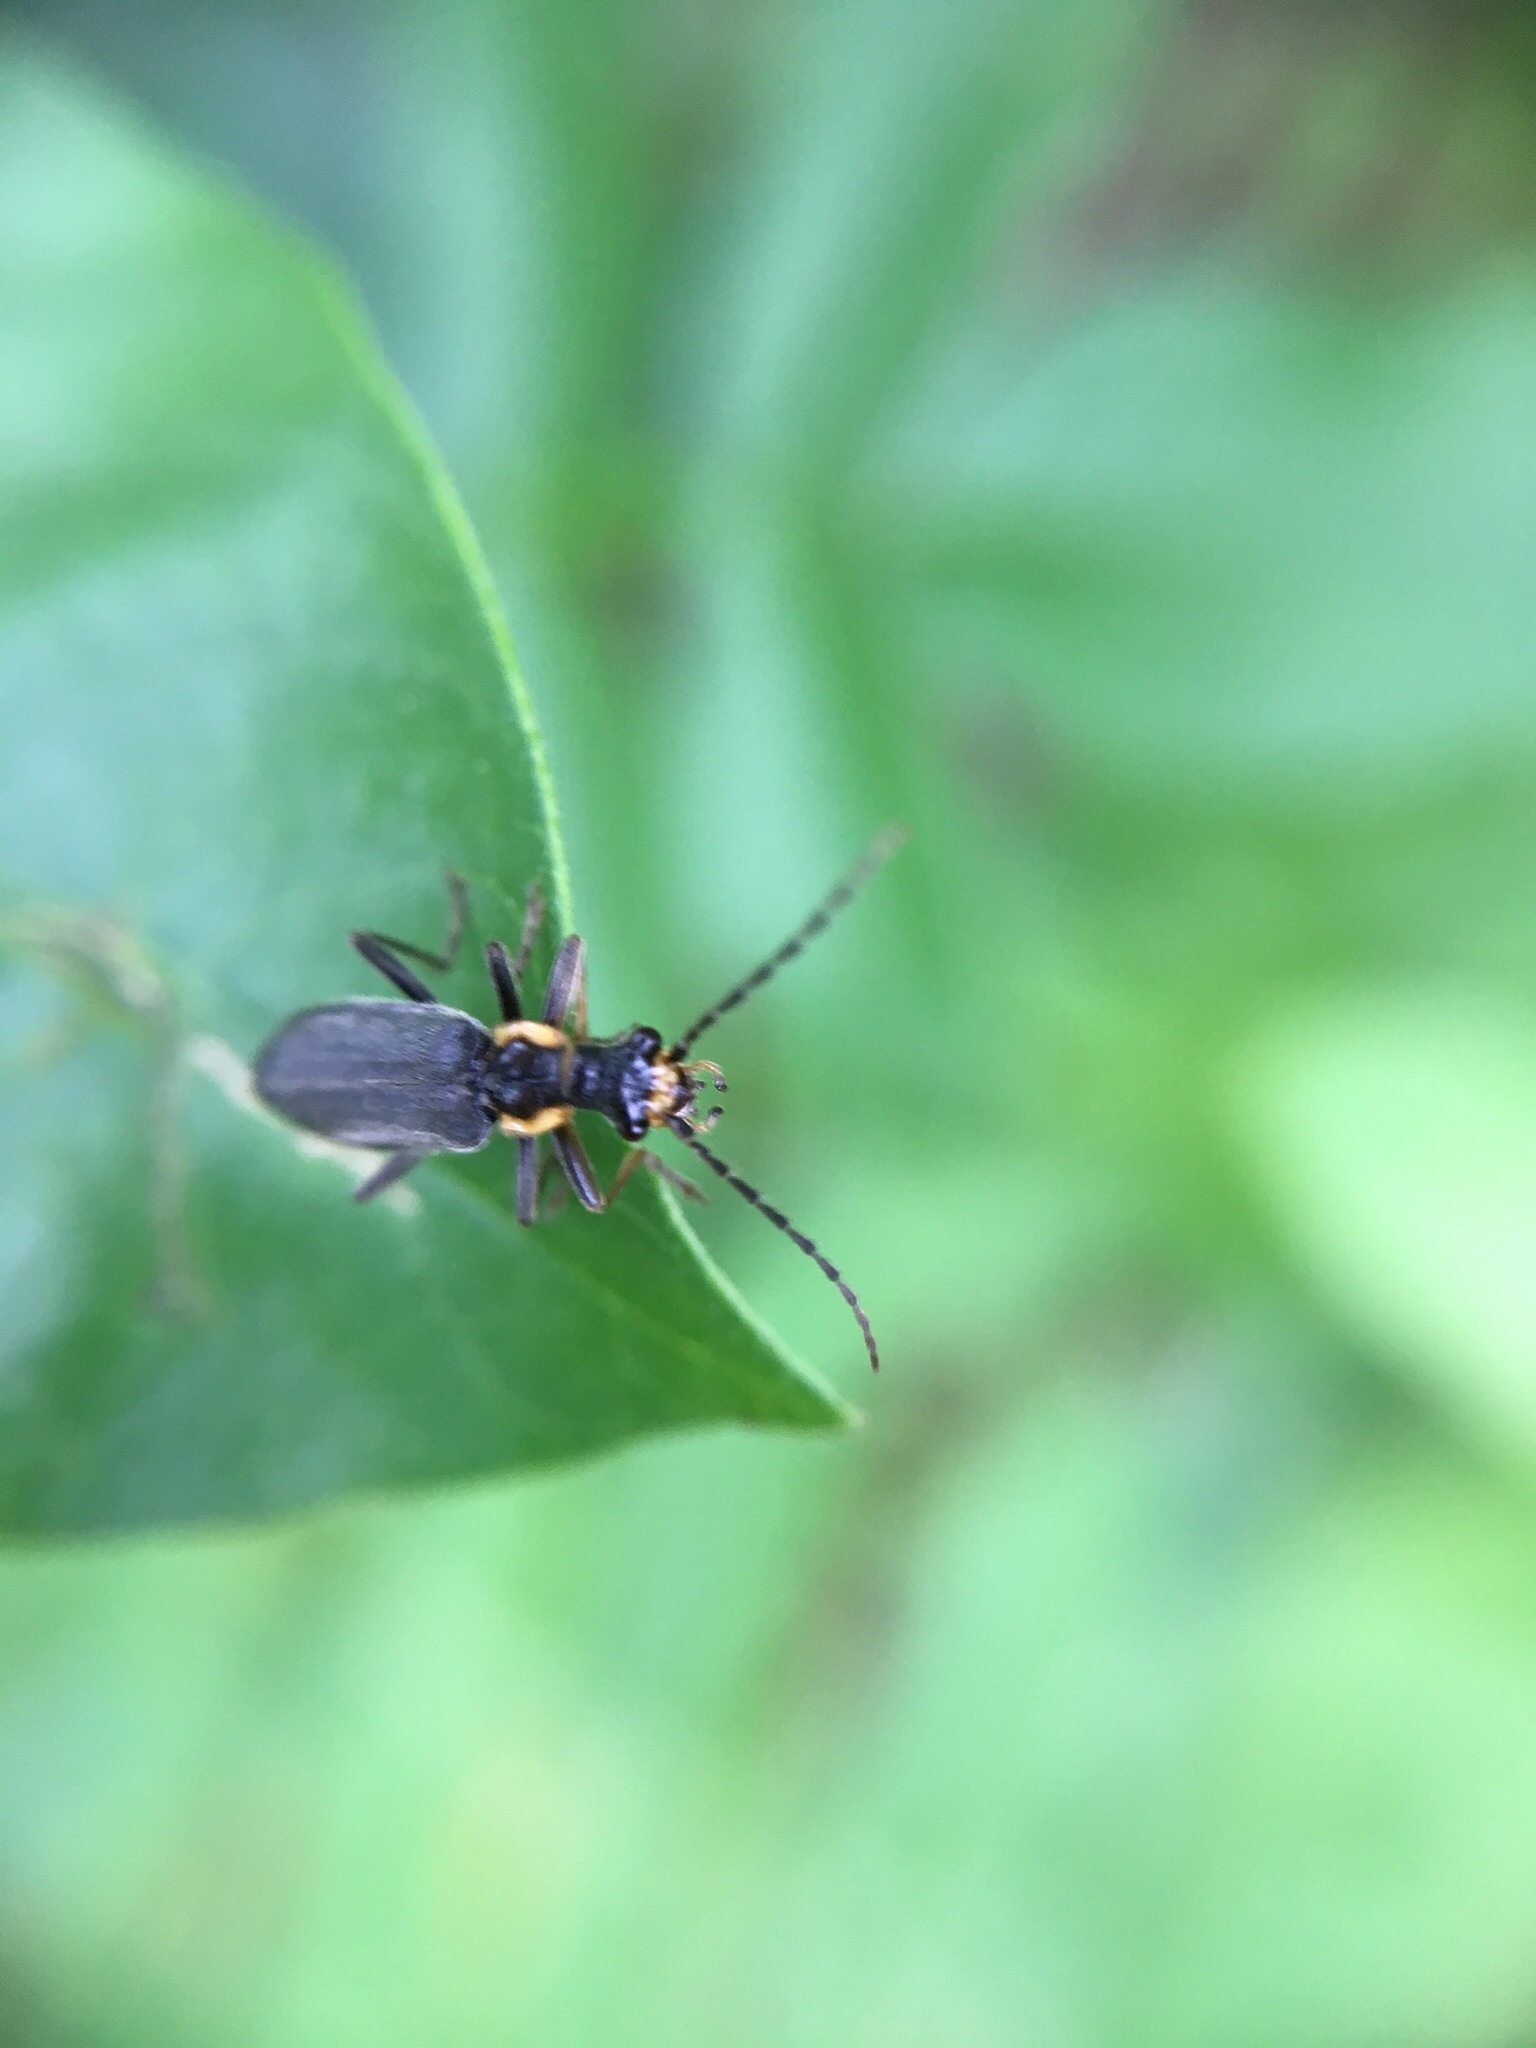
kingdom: Animalia
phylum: Arthropoda
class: Insecta
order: Coleoptera
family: Cantharidae
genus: Podabrus
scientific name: Podabrus rugosulus
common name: Wrinkled soldier beetle
